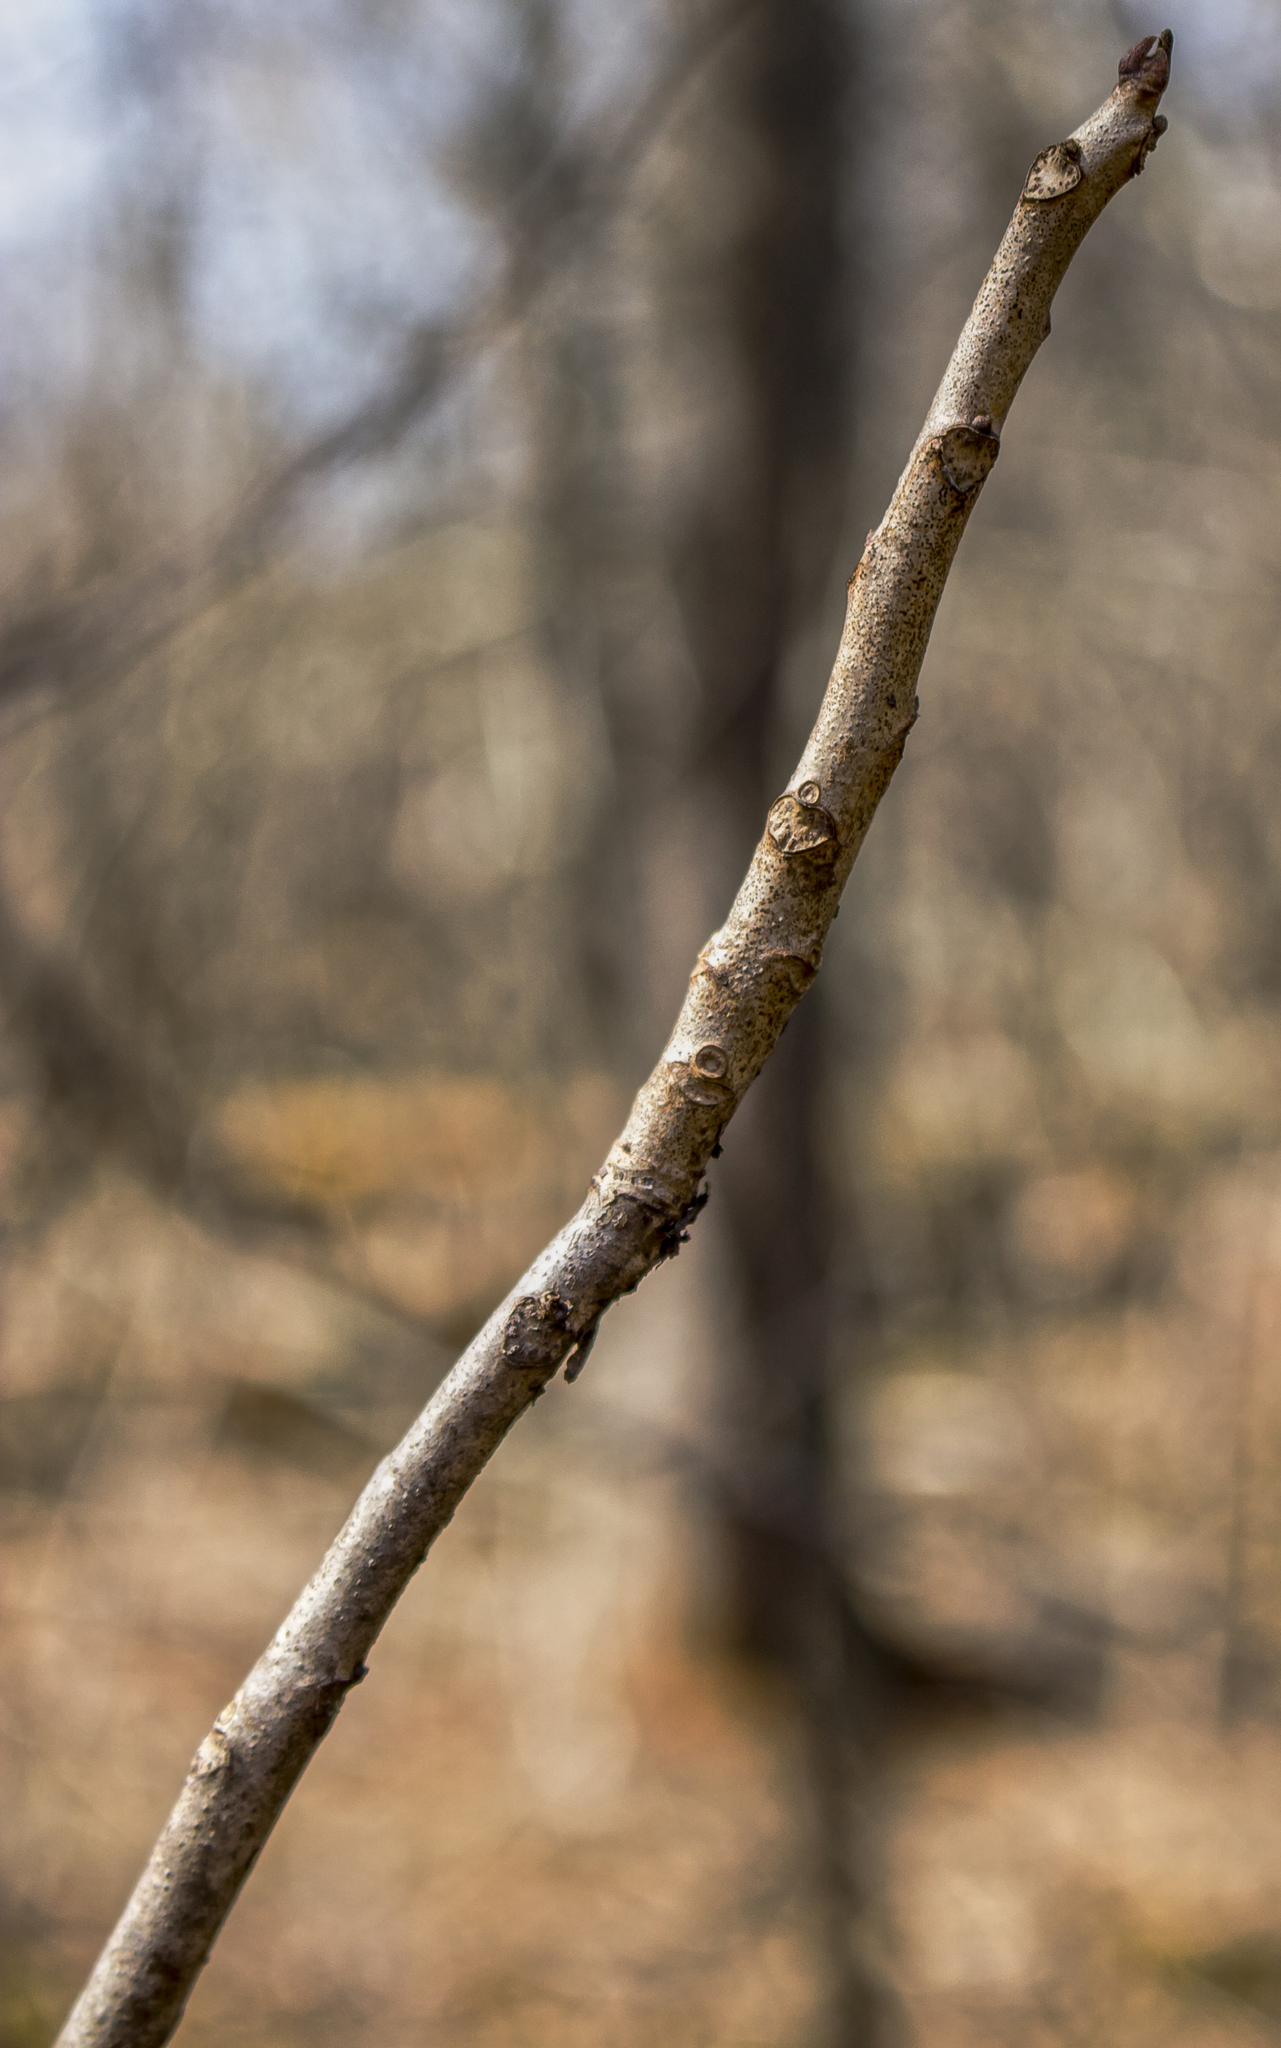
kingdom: Plantae
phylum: Tracheophyta
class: Magnoliopsida
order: Sapindales
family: Anacardiaceae
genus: Toxicodendron
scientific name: Toxicodendron vernix
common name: Poison sumac
